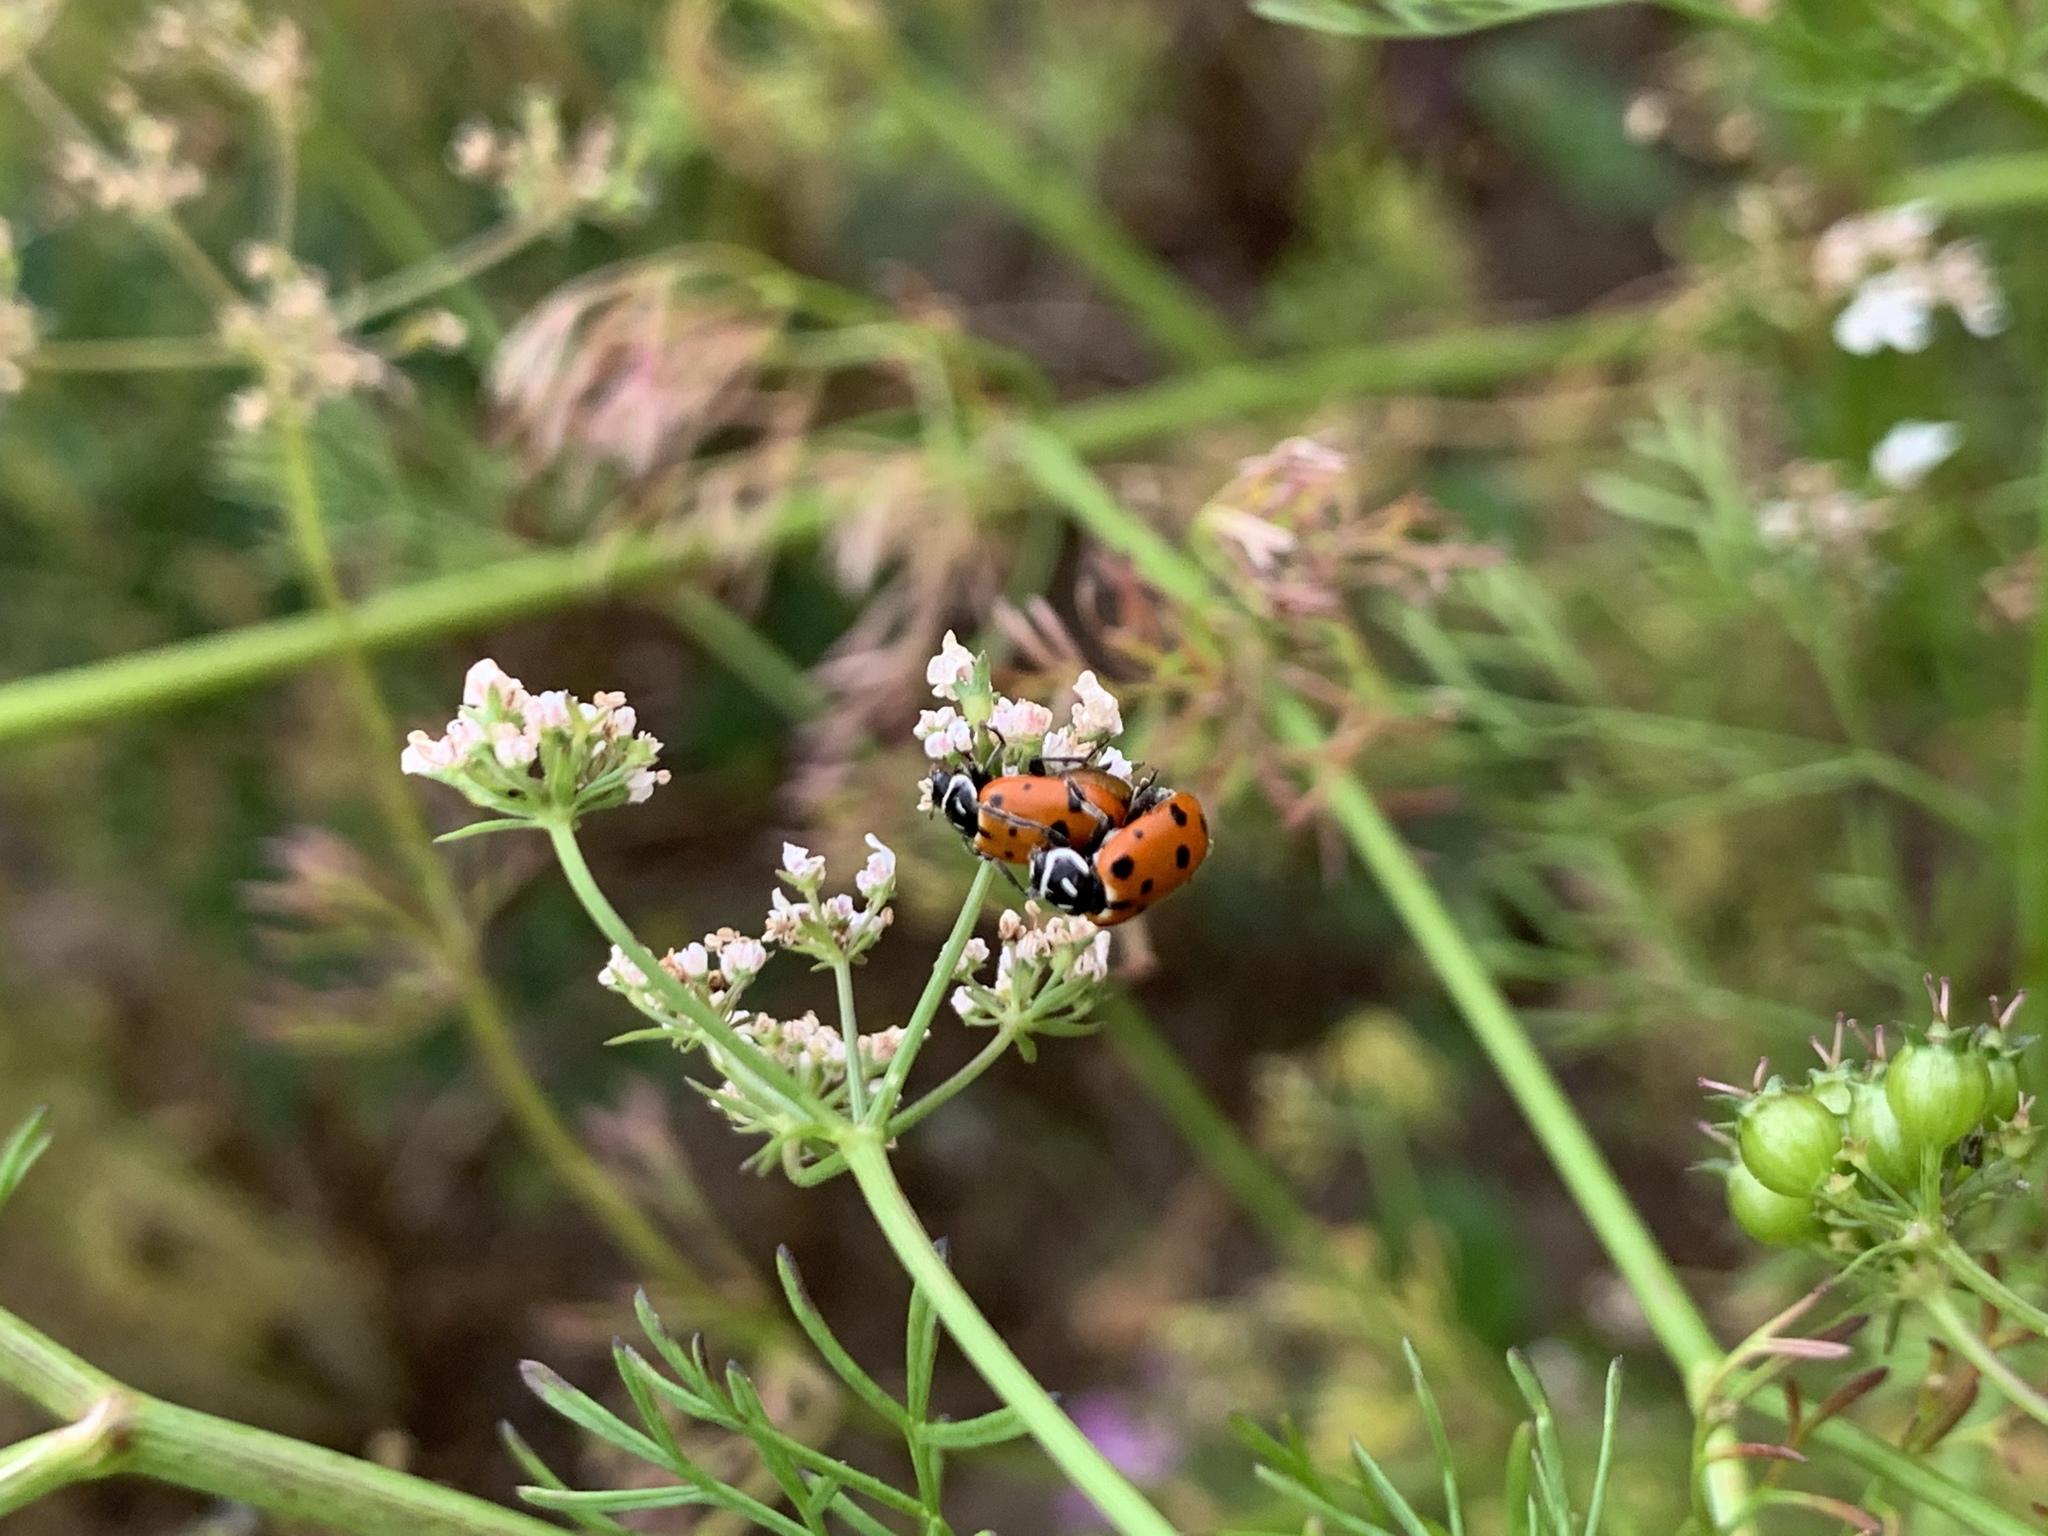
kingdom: Animalia
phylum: Arthropoda
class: Insecta
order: Coleoptera
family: Coccinellidae
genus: Hippodamia
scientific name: Hippodamia convergens
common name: Convergent lady beetle
